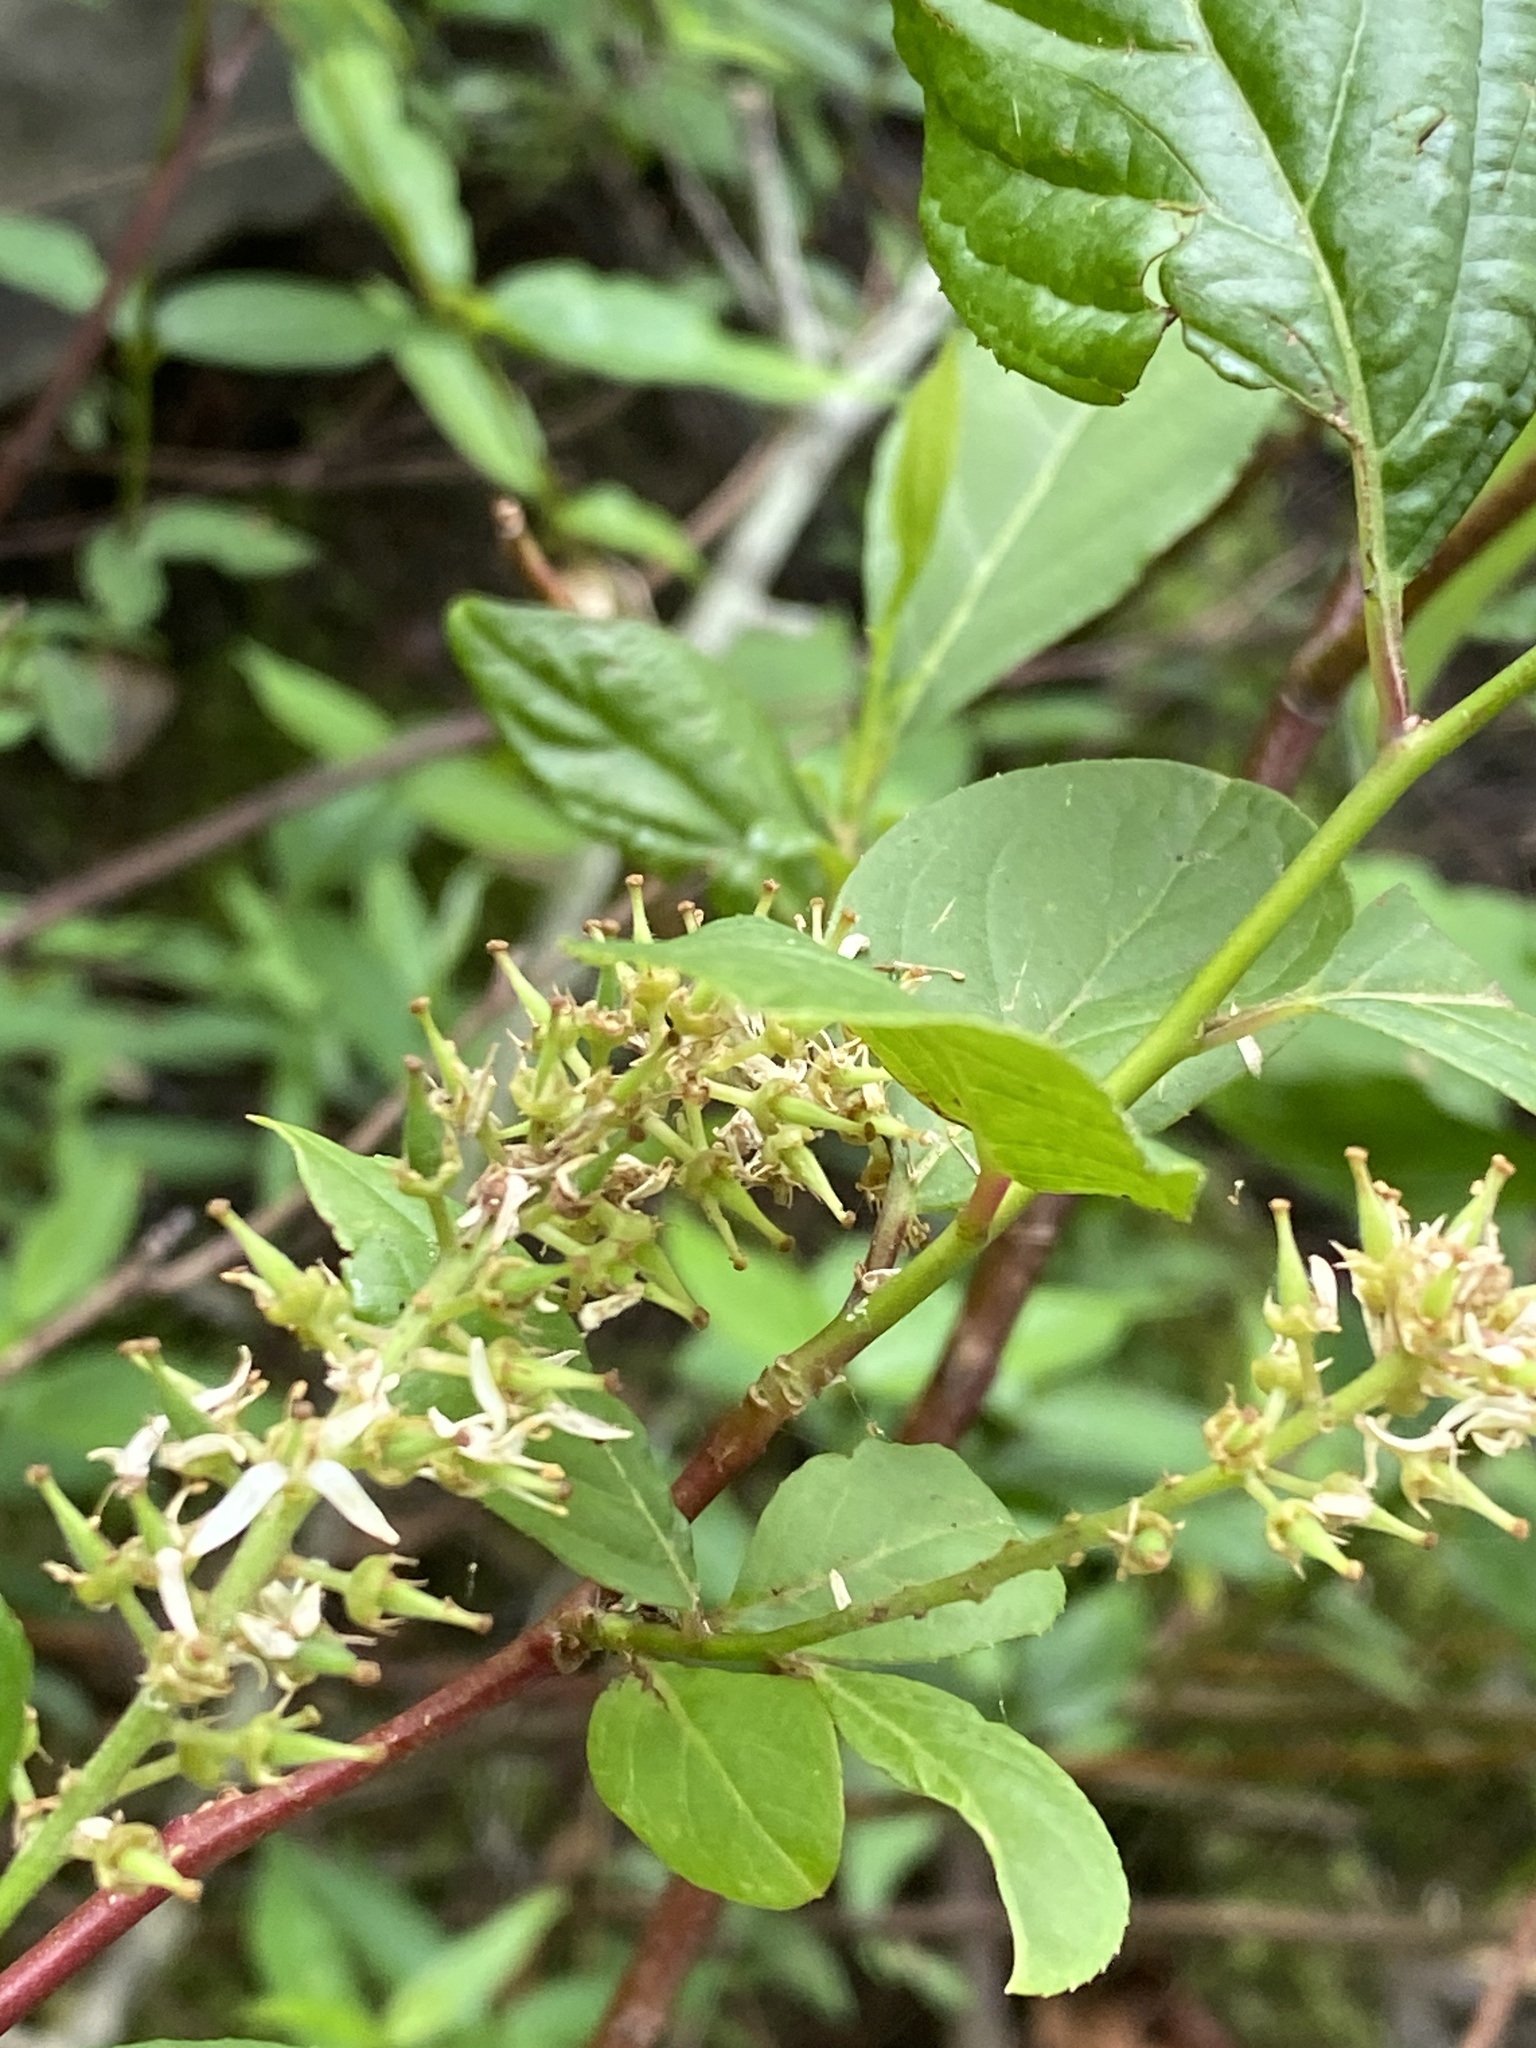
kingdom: Plantae
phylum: Tracheophyta
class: Magnoliopsida
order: Saxifragales
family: Iteaceae
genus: Itea
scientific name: Itea virginica
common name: Sweetspire
